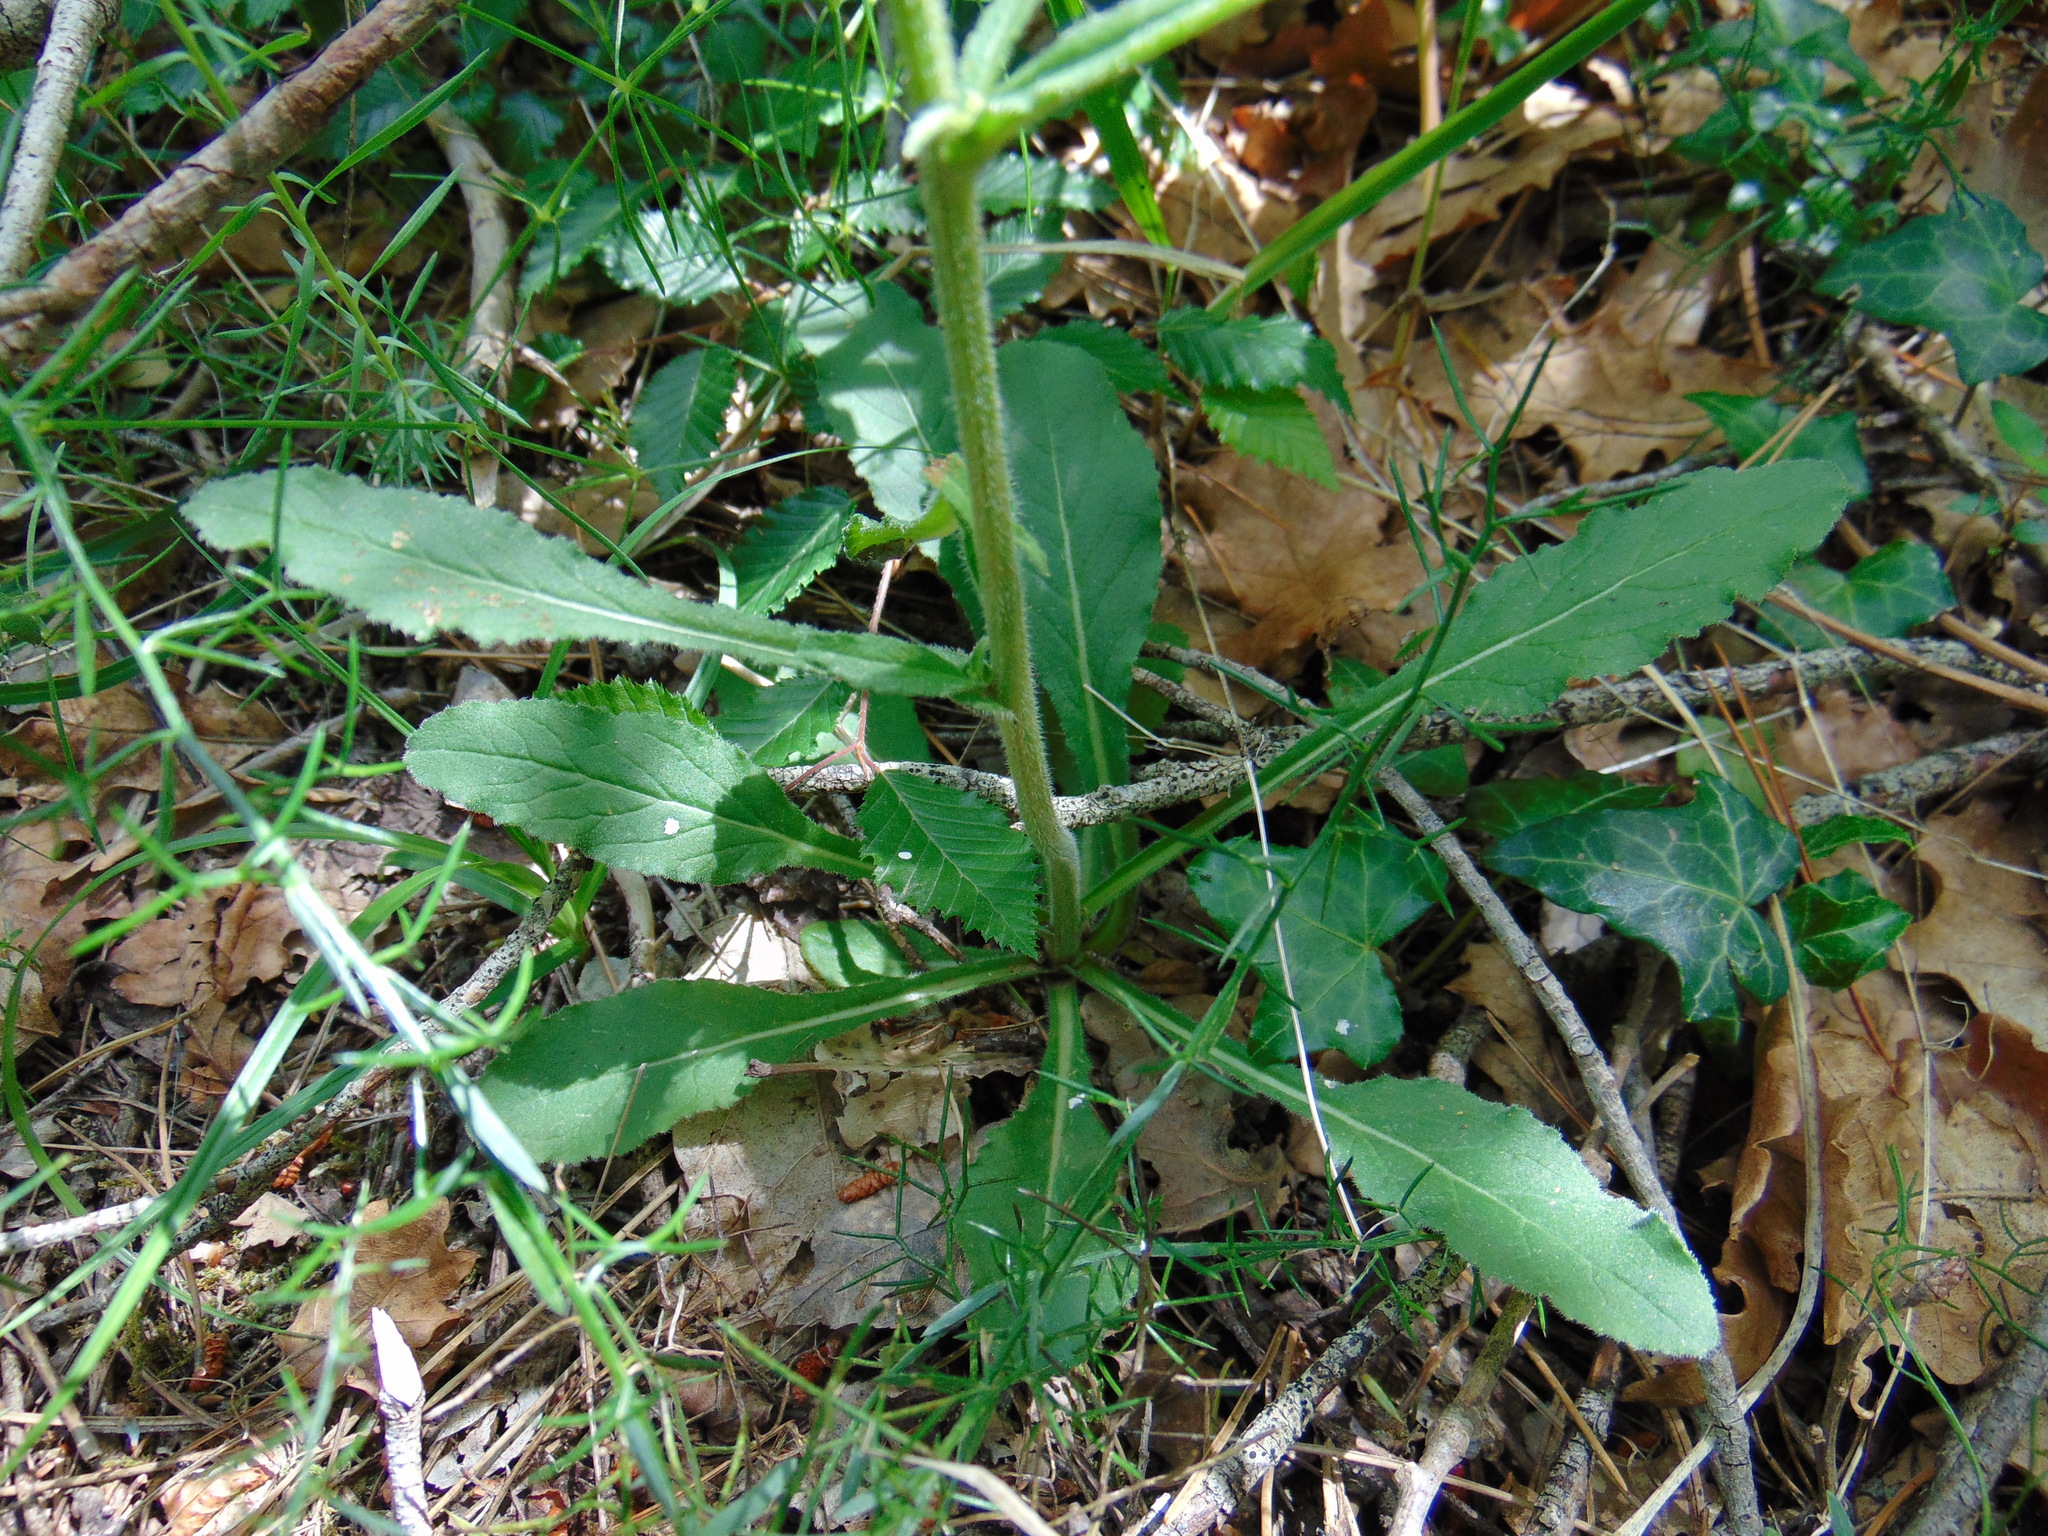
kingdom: Plantae
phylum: Tracheophyta
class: Magnoliopsida
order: Asterales
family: Campanulaceae
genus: Campanula
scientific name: Campanula sibirica
